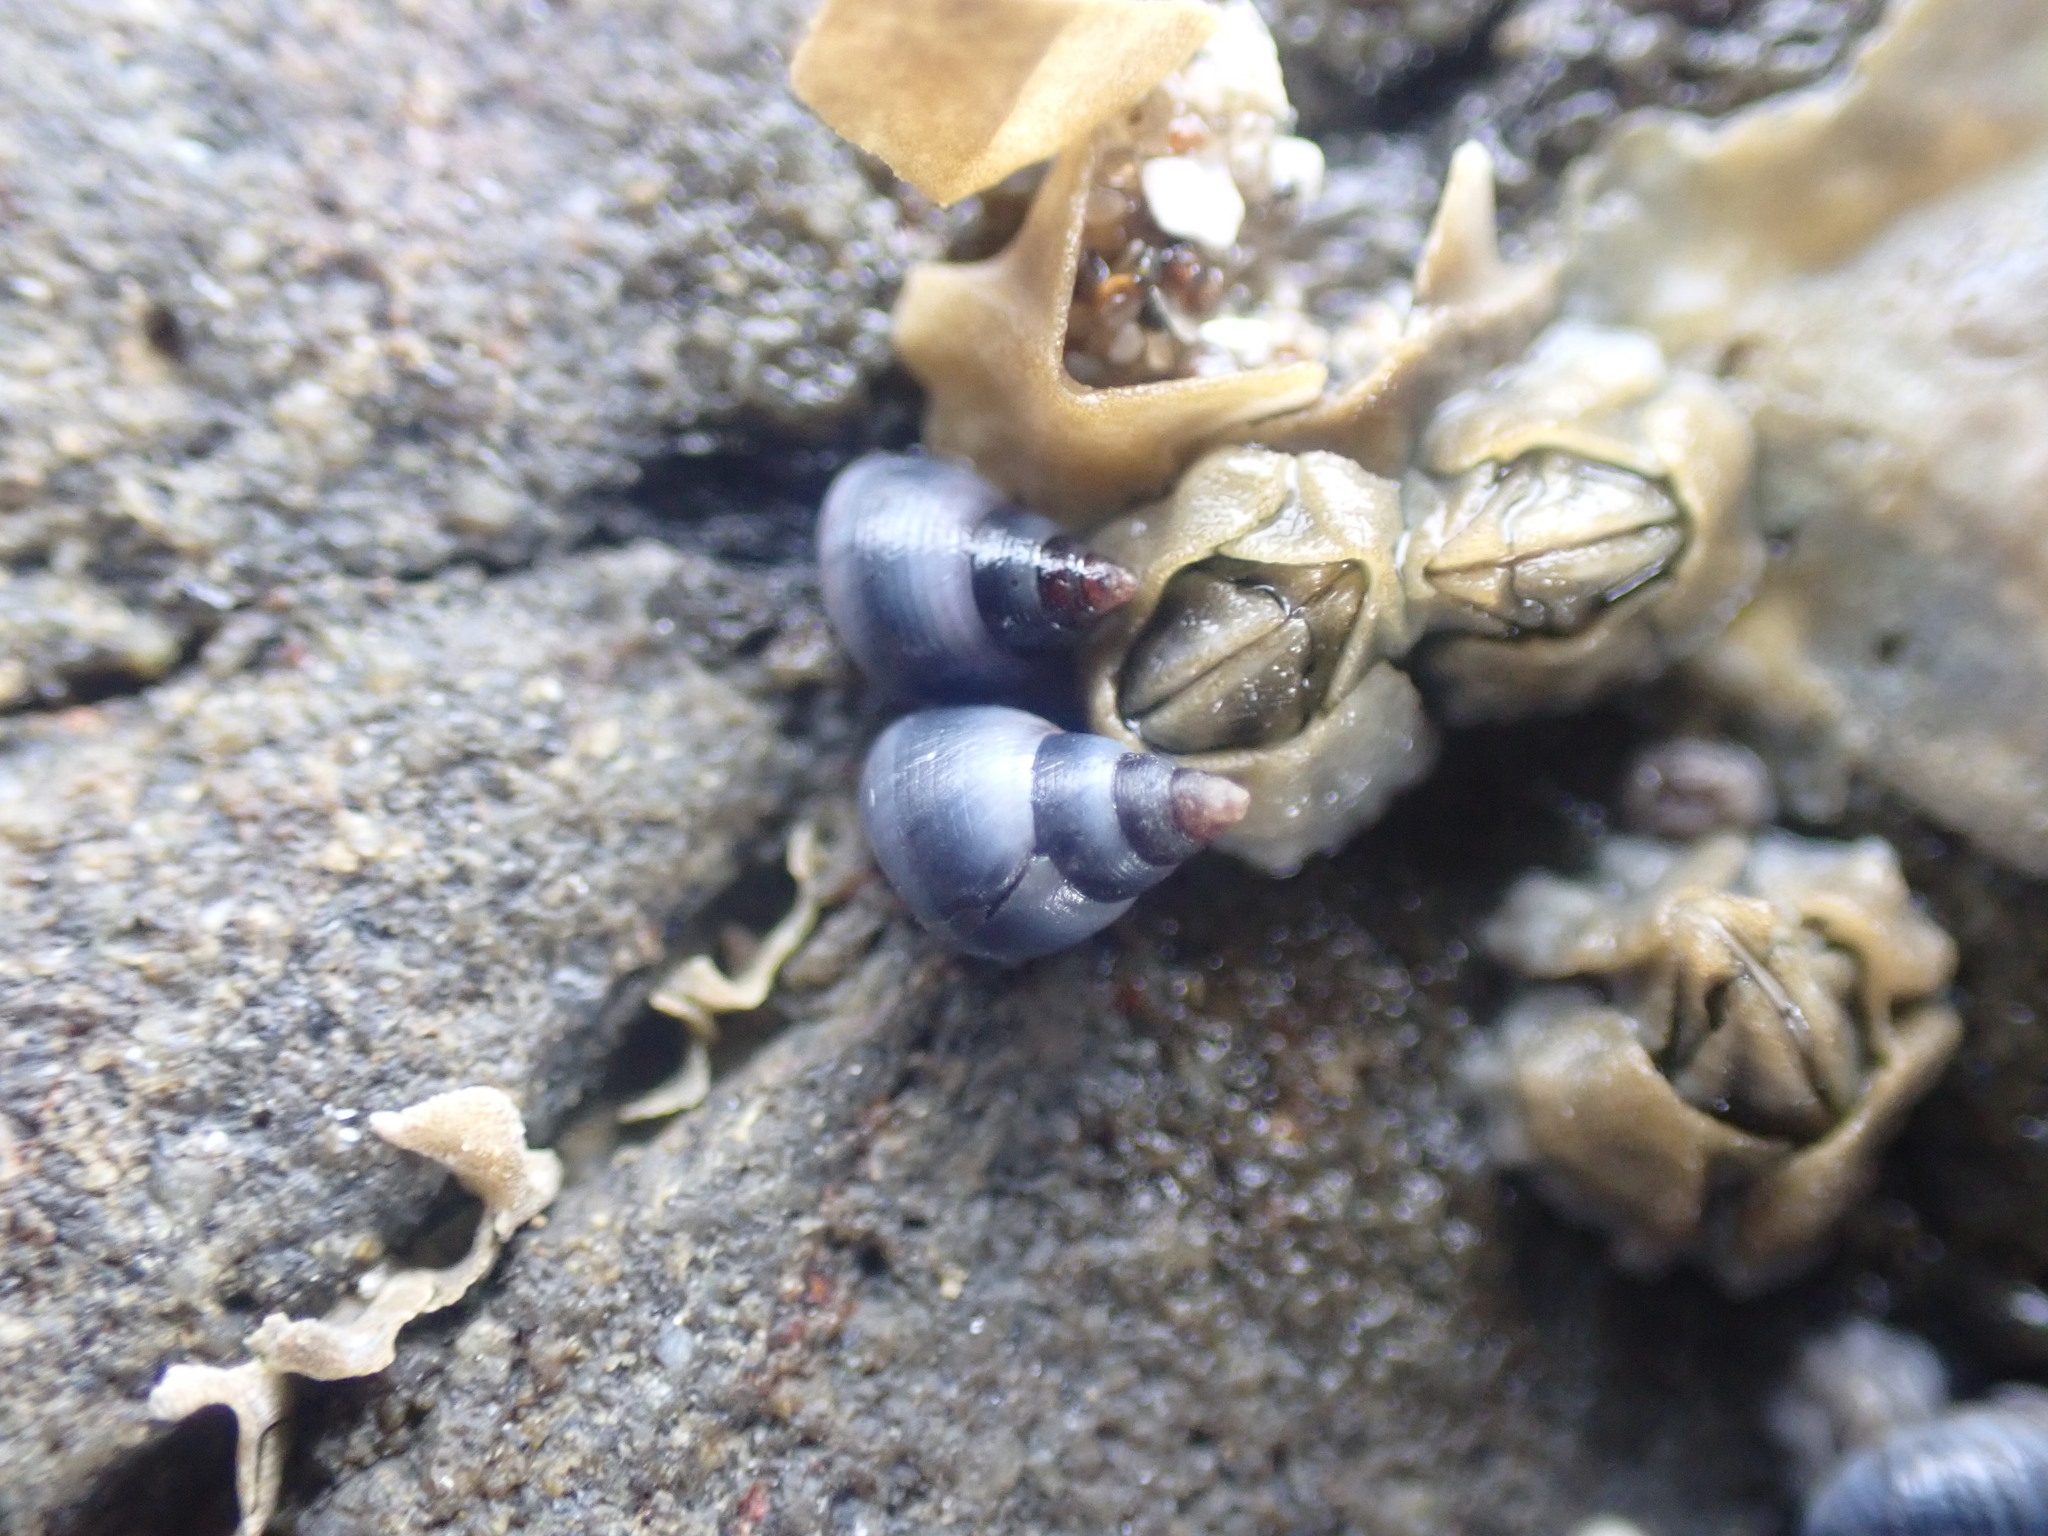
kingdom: Animalia
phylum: Mollusca
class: Gastropoda
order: Littorinimorpha
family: Littorinidae
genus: Austrolittorina
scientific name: Austrolittorina antipodum
